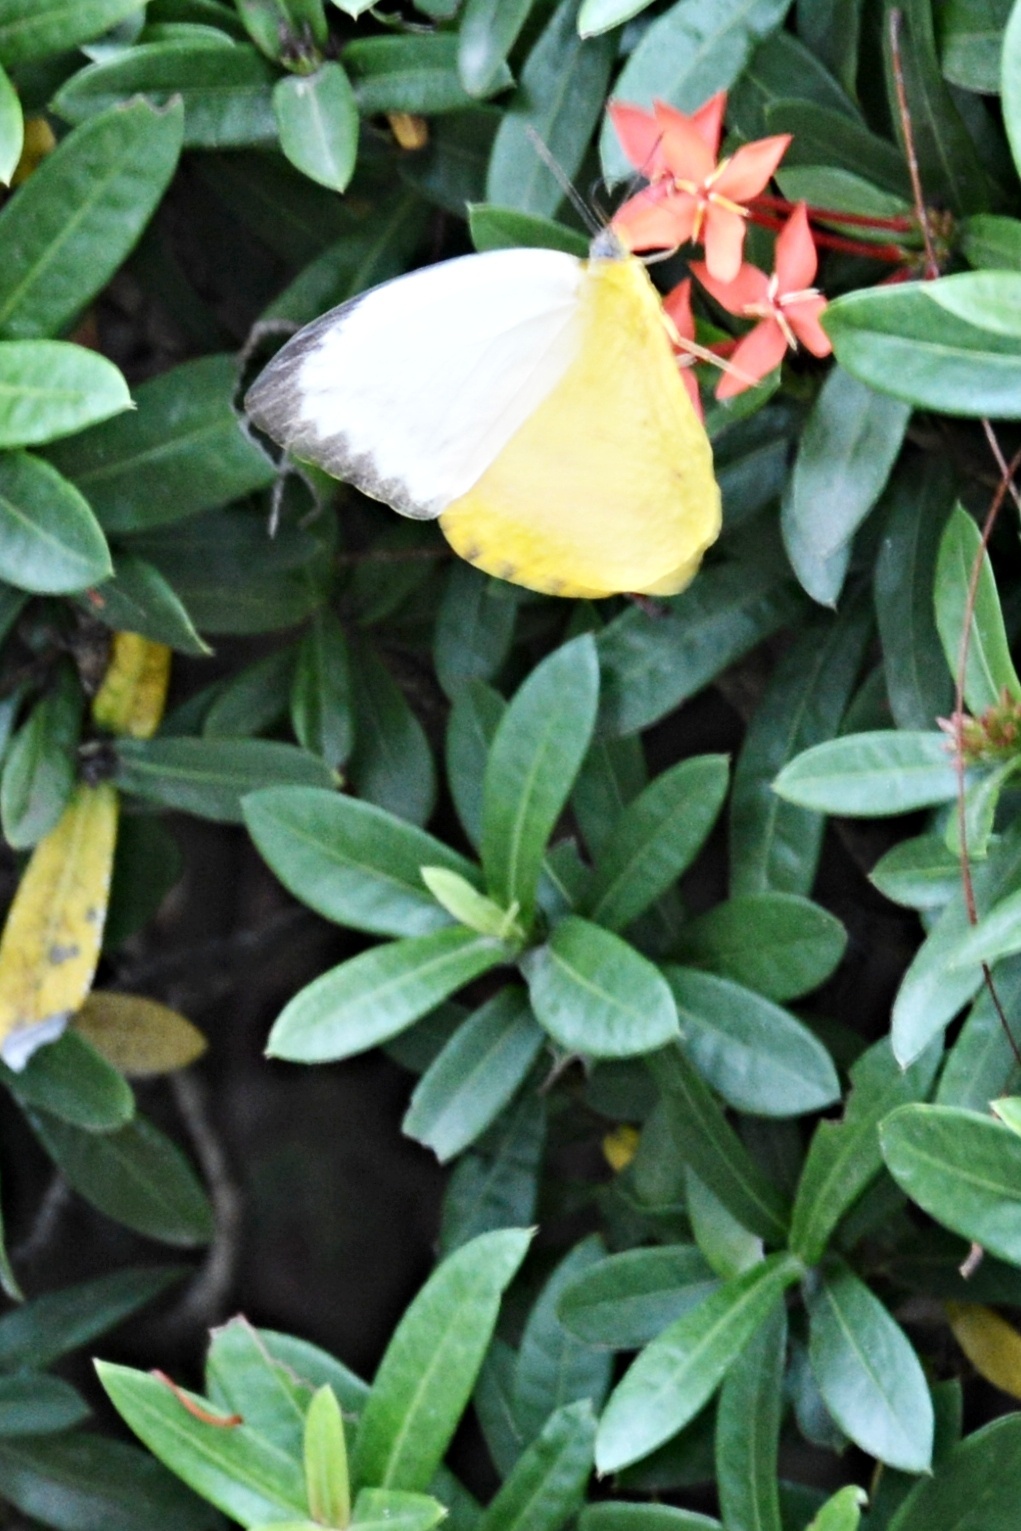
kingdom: Animalia
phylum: Arthropoda
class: Insecta
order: Lepidoptera
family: Pieridae
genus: Catopsilia
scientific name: Catopsilia scylla
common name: Orange emigrant
